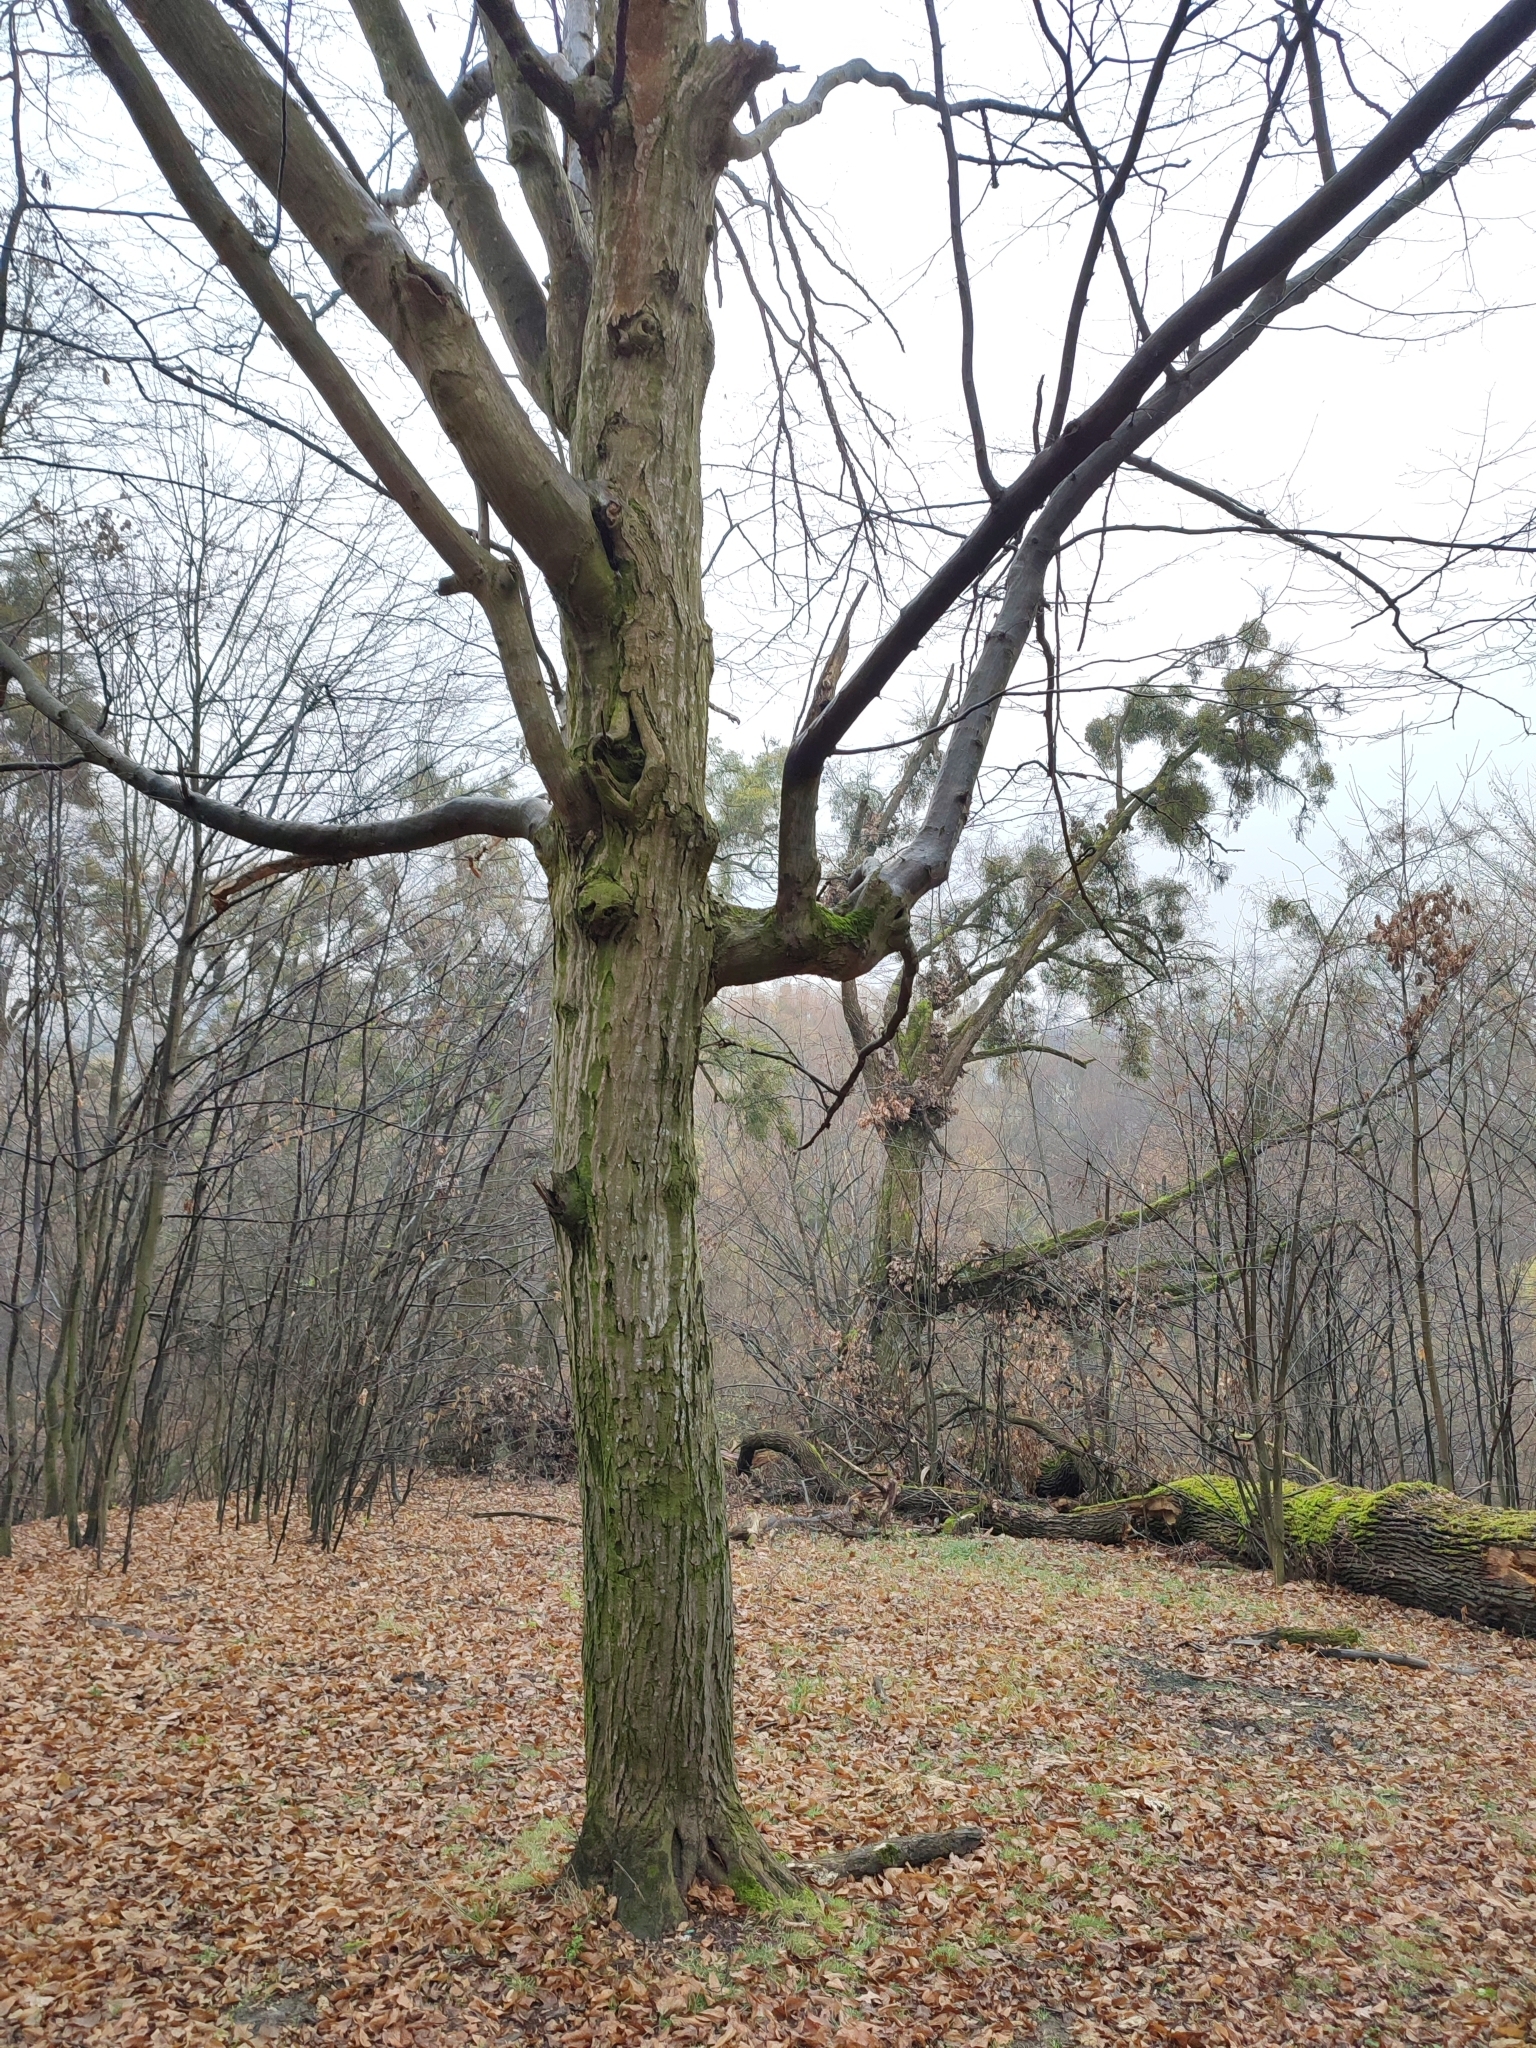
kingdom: Plantae
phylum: Tracheophyta
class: Magnoliopsida
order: Fagales
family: Betulaceae
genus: Carpinus
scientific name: Carpinus betulus
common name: Hornbeam
